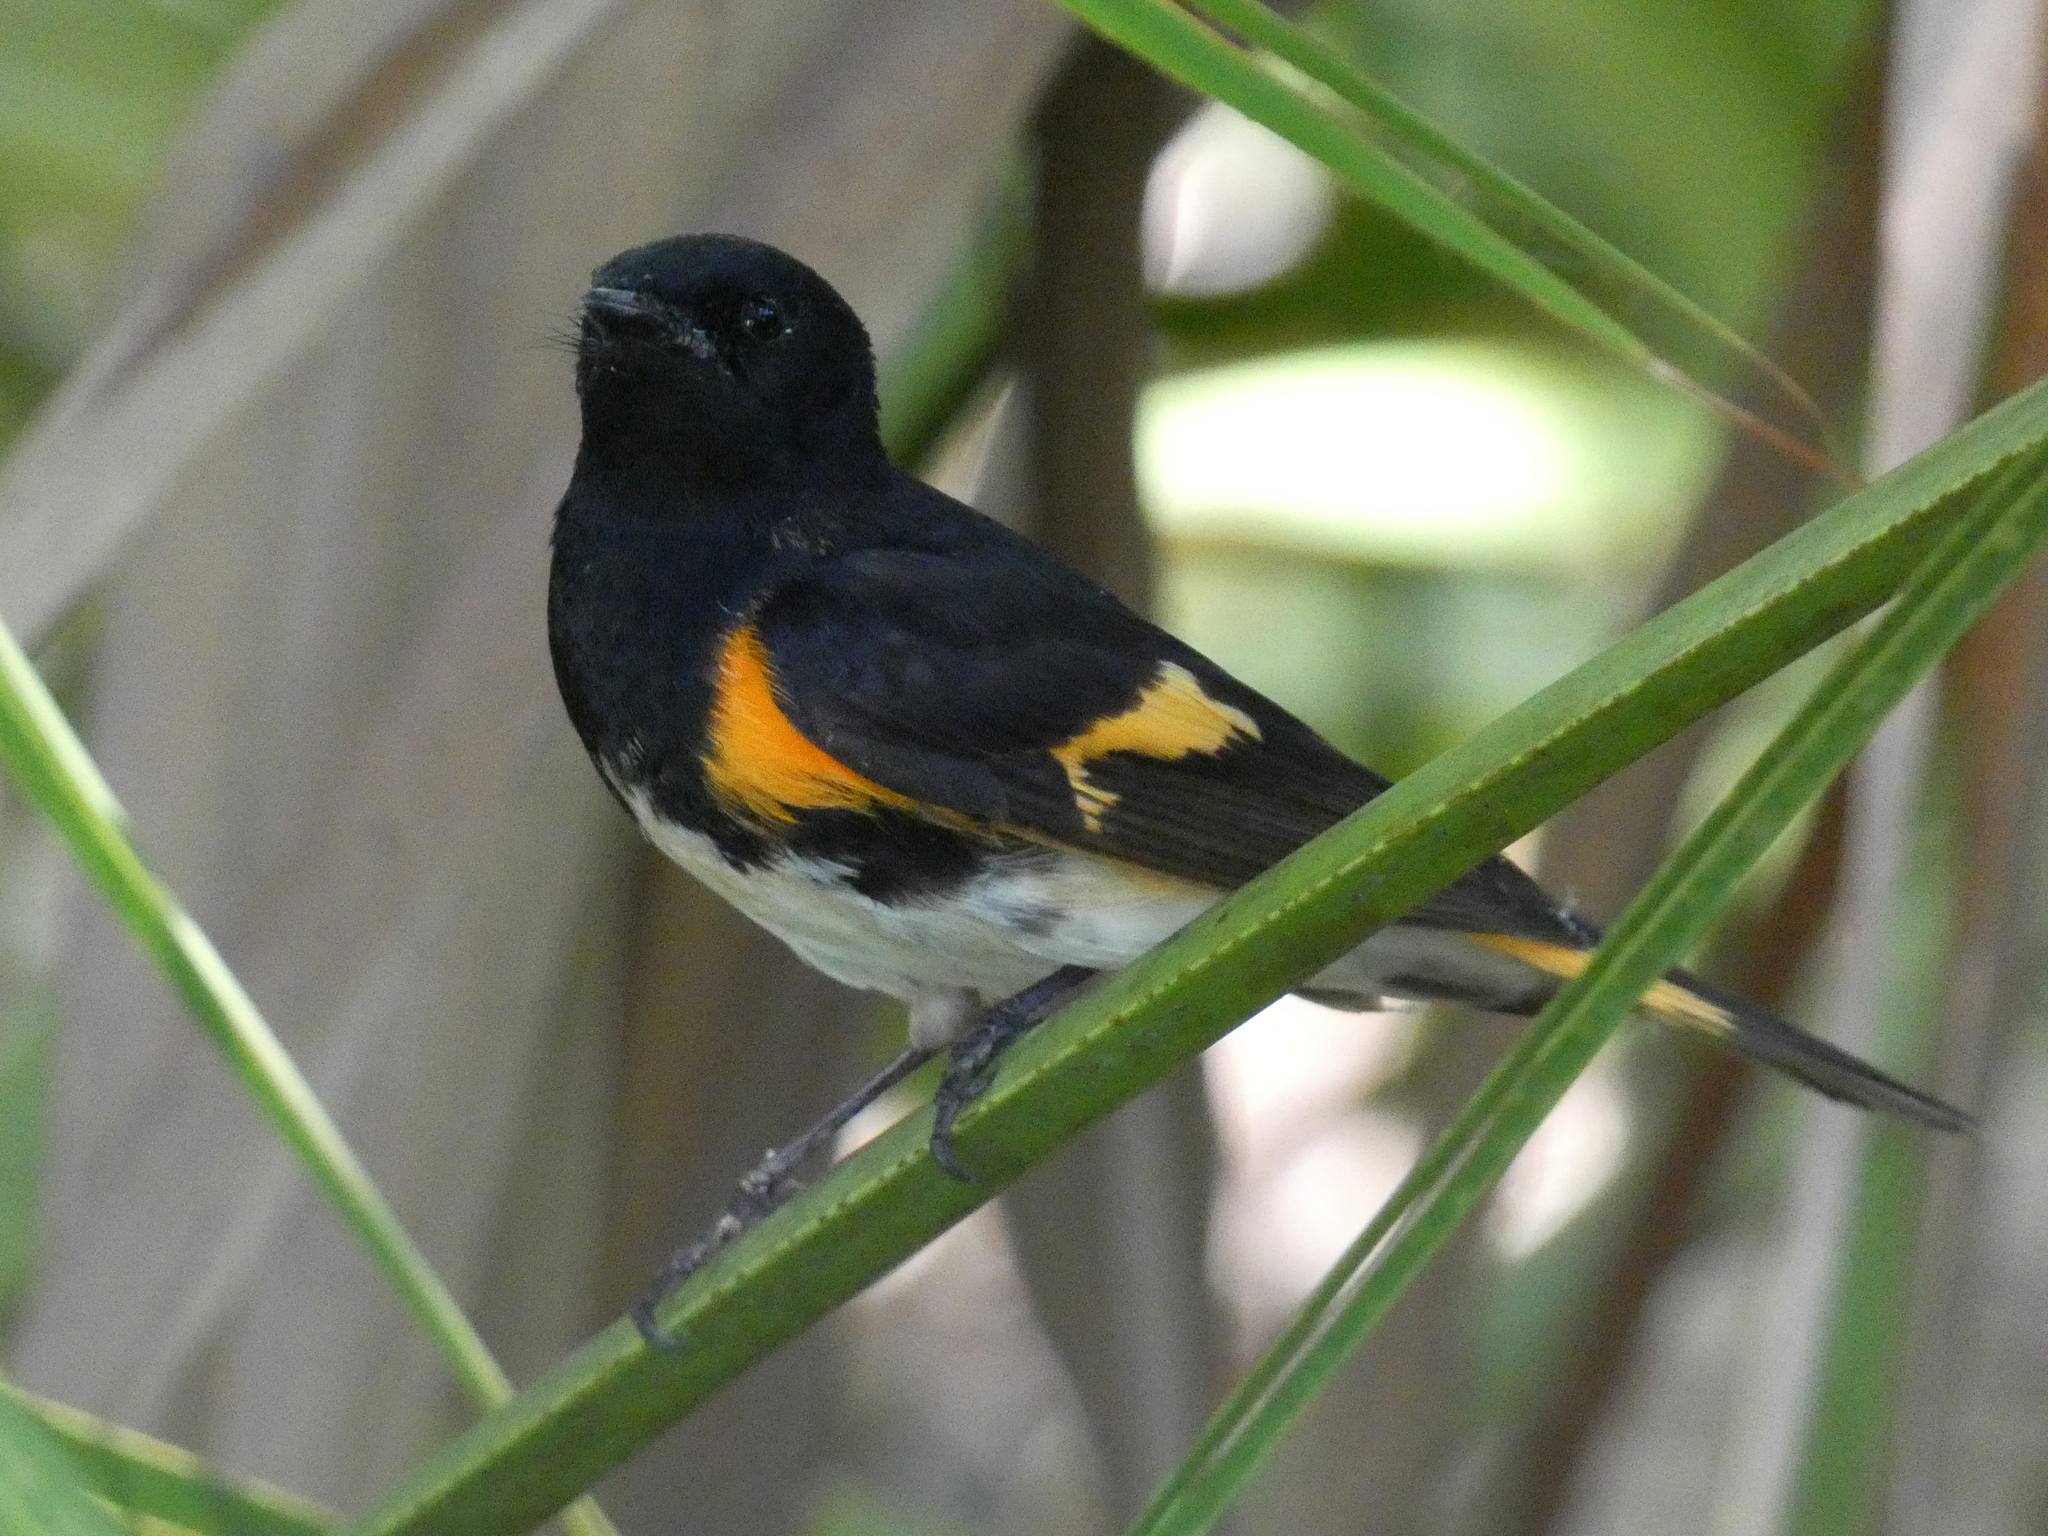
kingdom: Animalia
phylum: Chordata
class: Aves
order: Passeriformes
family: Parulidae
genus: Setophaga
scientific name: Setophaga ruticilla
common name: American redstart
